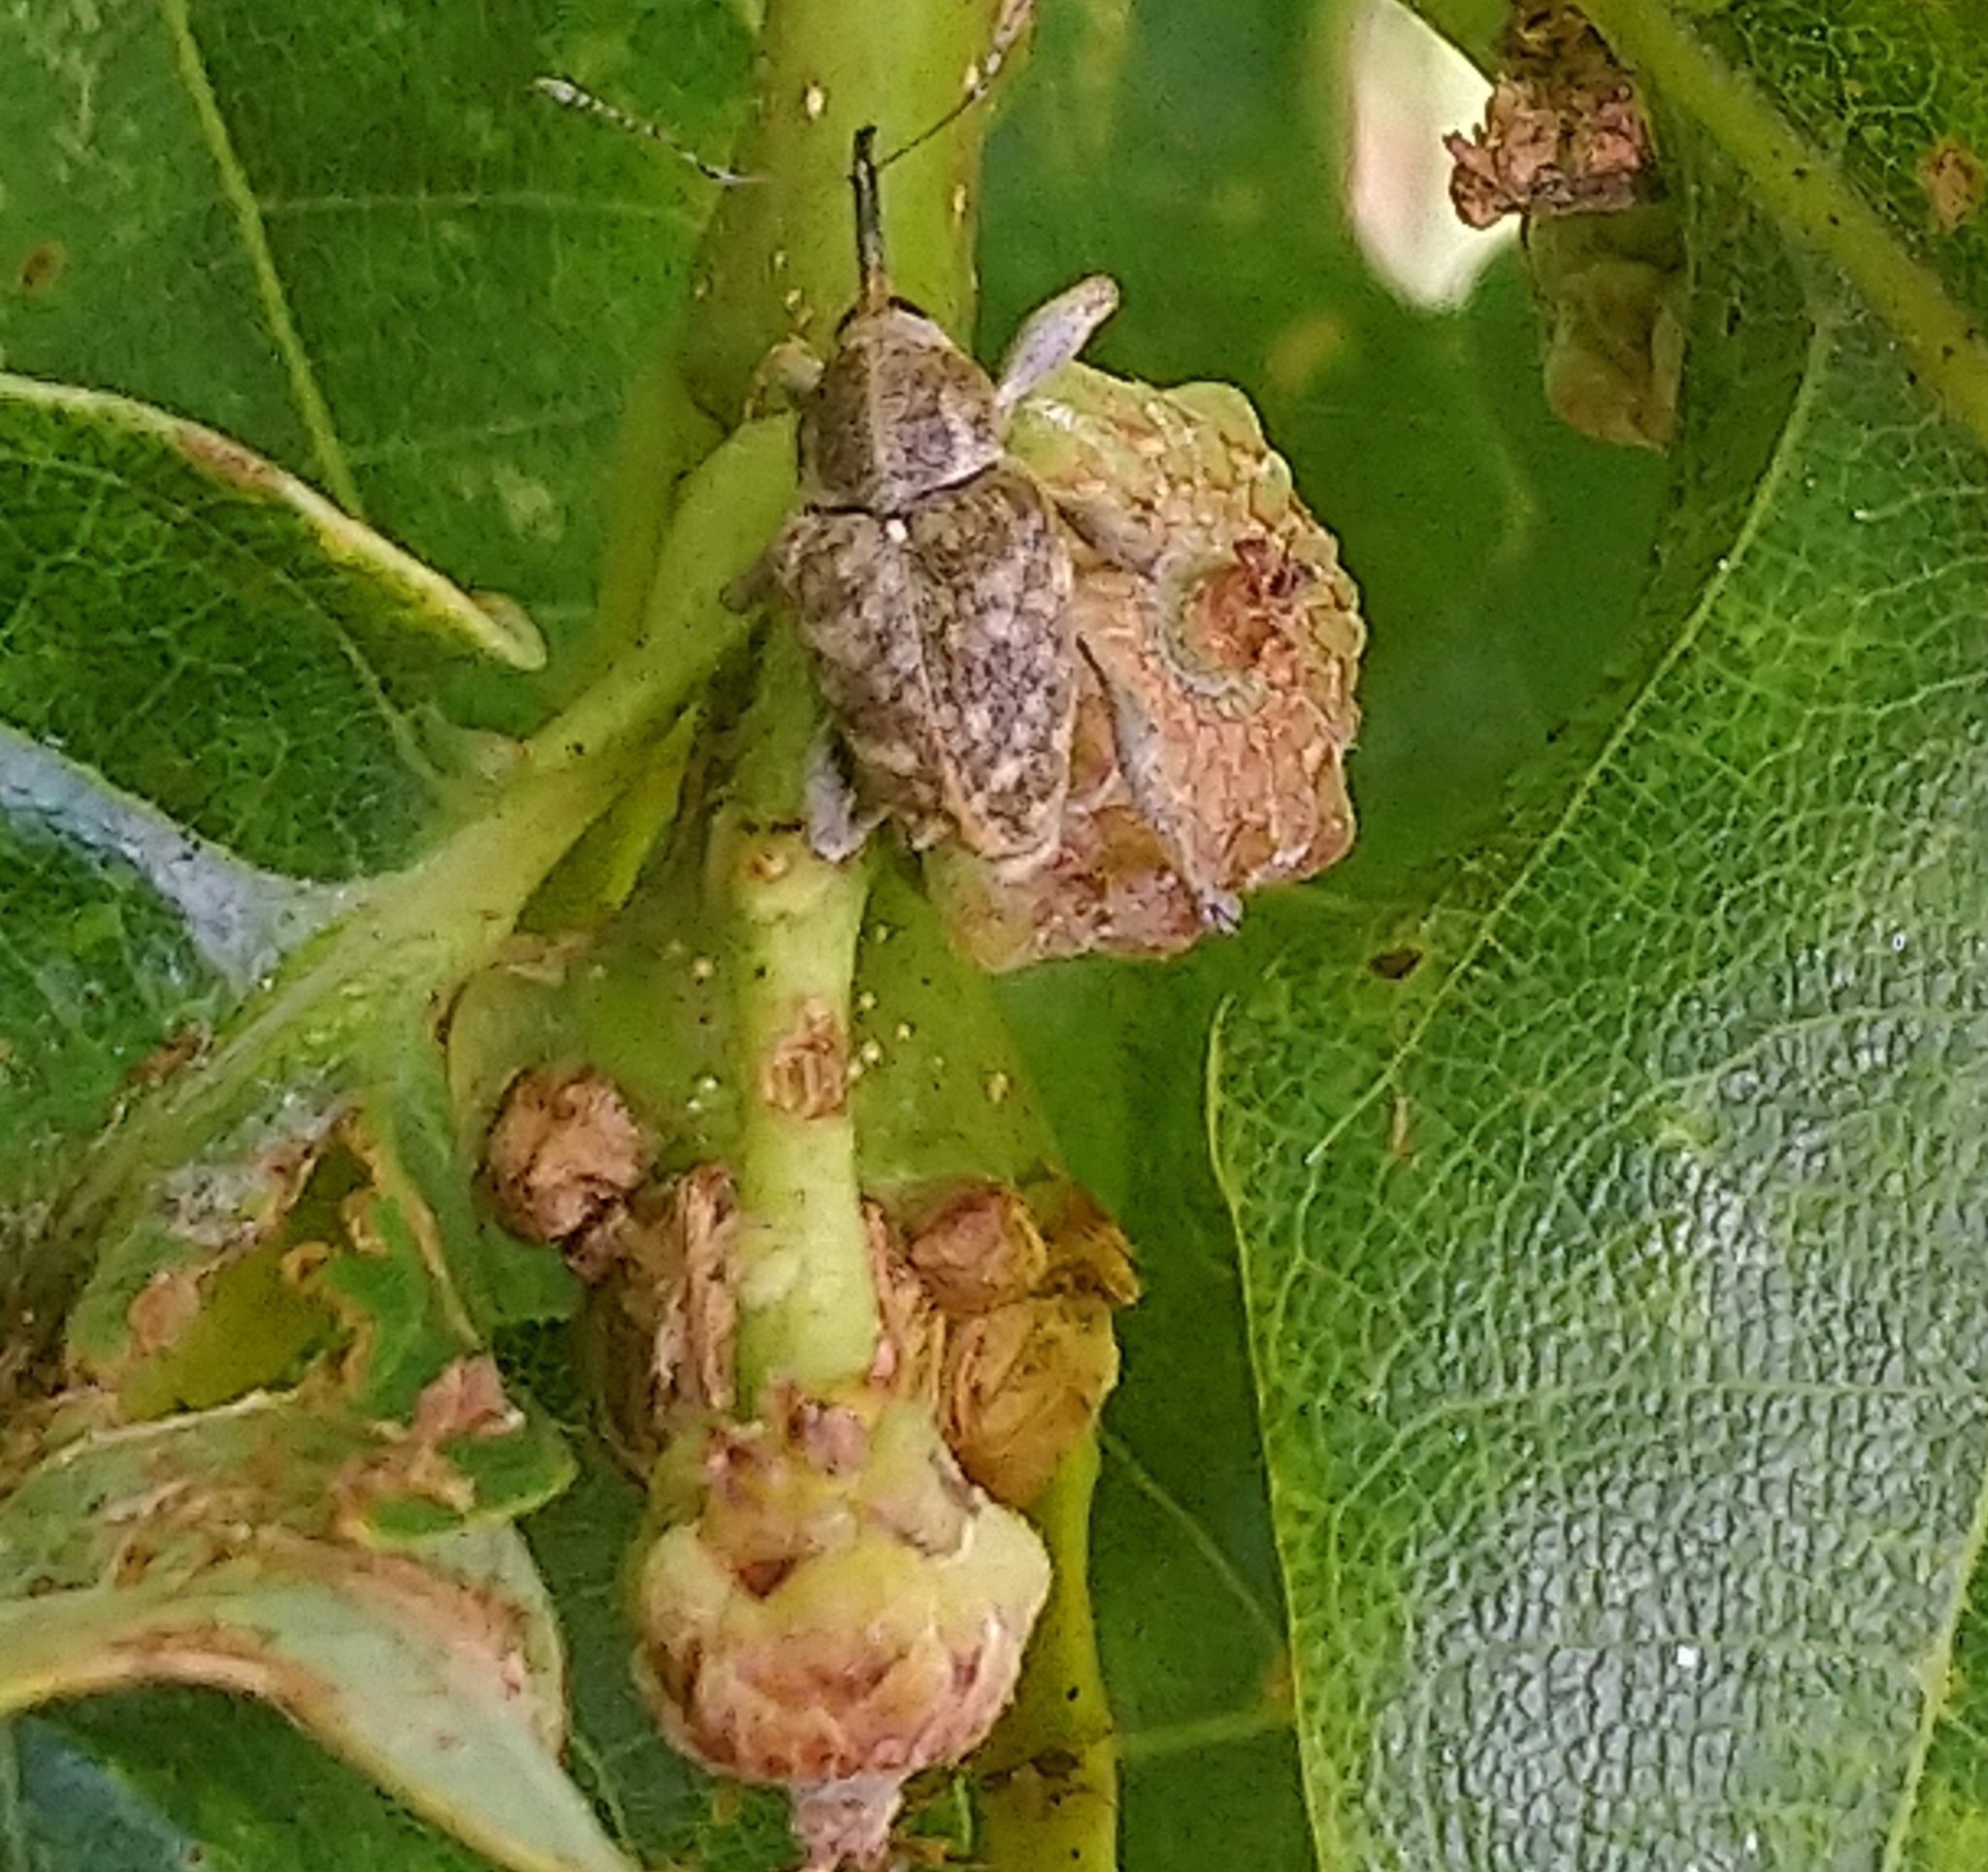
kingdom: Animalia
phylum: Arthropoda
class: Insecta
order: Coleoptera
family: Curculionidae
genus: Curculio
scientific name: Curculio venosus
